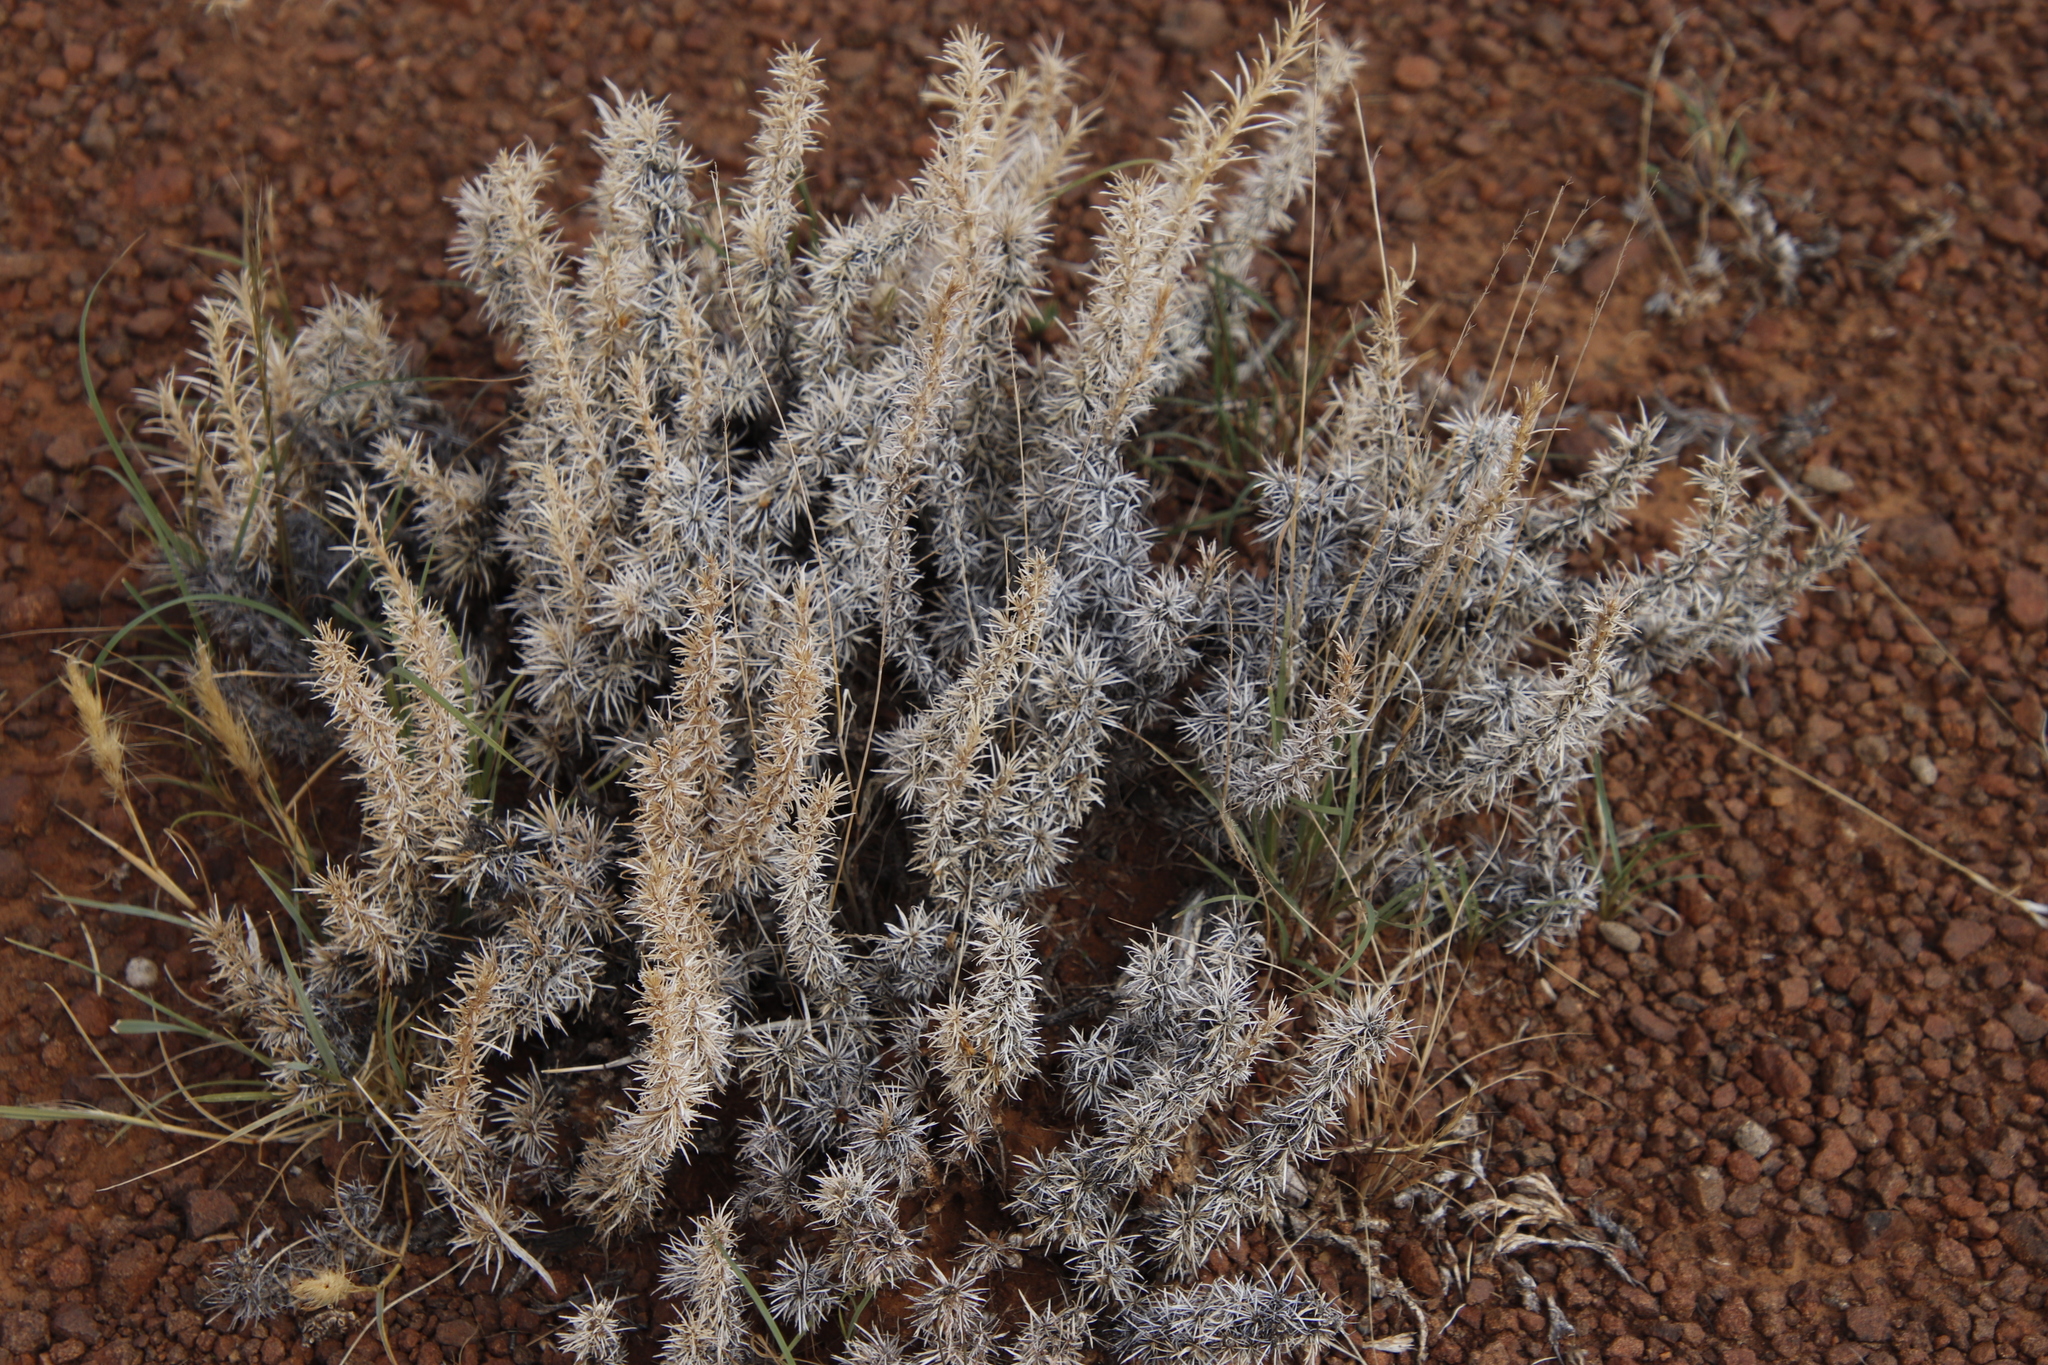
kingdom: Plantae
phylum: Tracheophyta
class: Magnoliopsida
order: Lamiales
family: Scrophulariaceae
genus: Aptosimum
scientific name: Aptosimum spinescens
